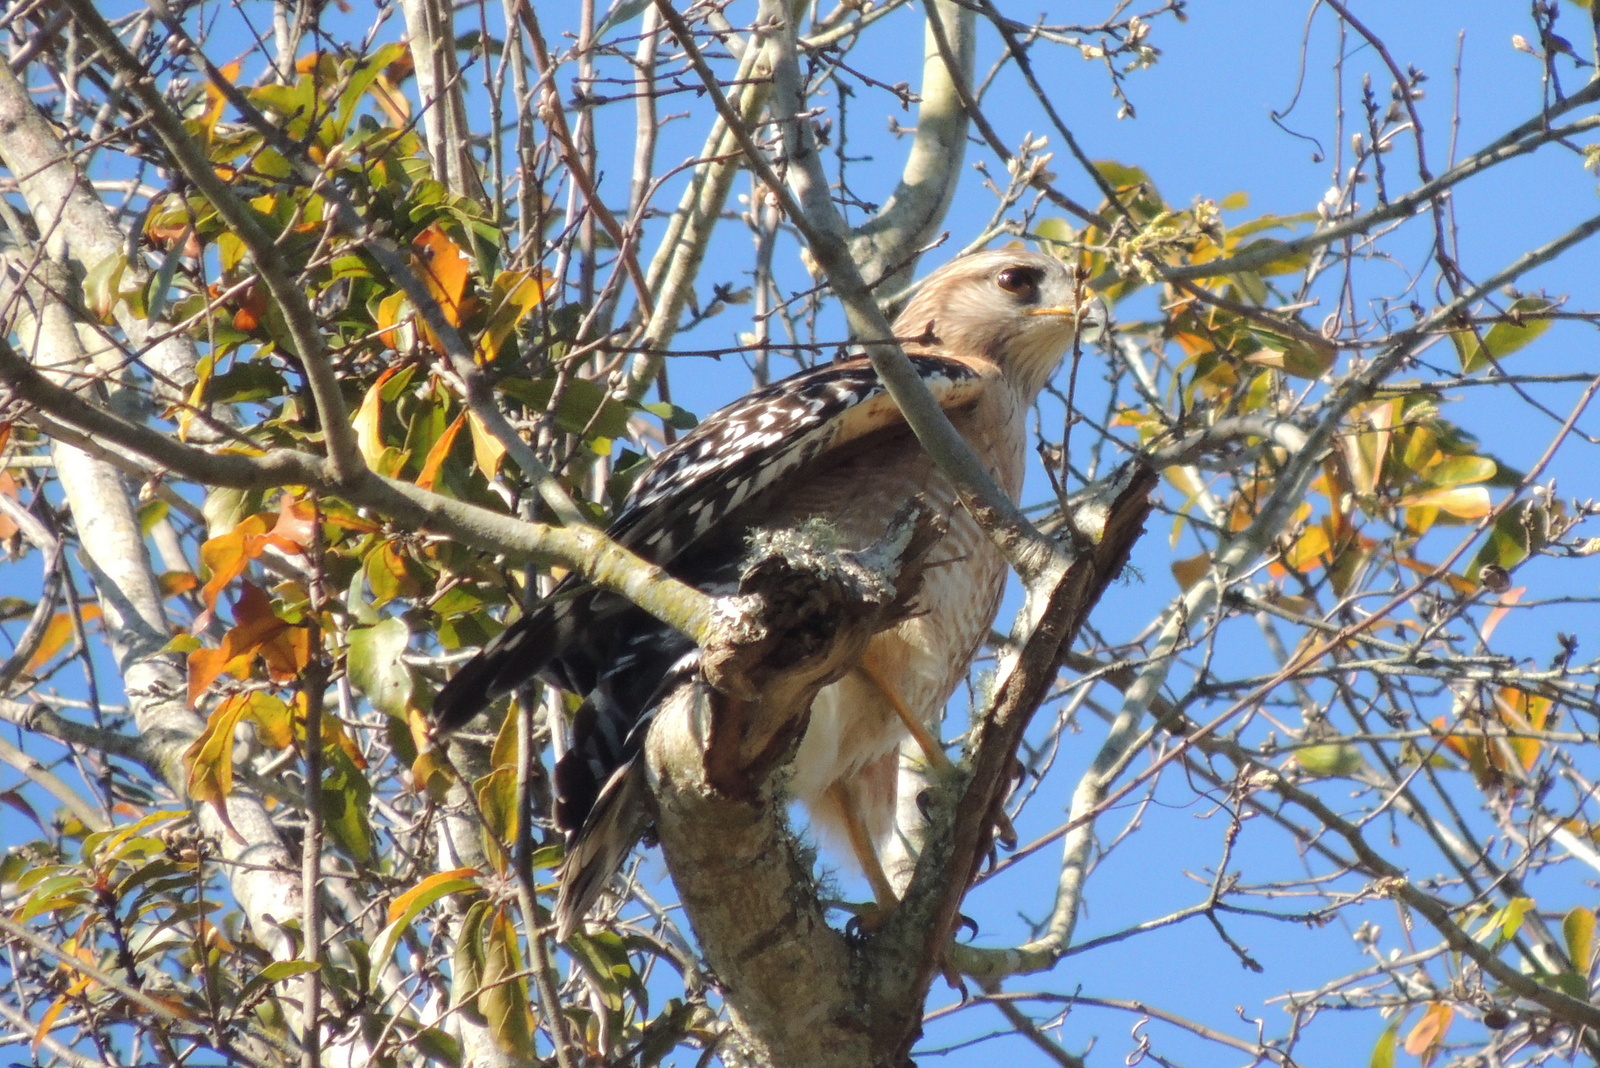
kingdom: Animalia
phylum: Chordata
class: Aves
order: Accipitriformes
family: Accipitridae
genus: Buteo
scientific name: Buteo lineatus
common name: Red-shouldered hawk
